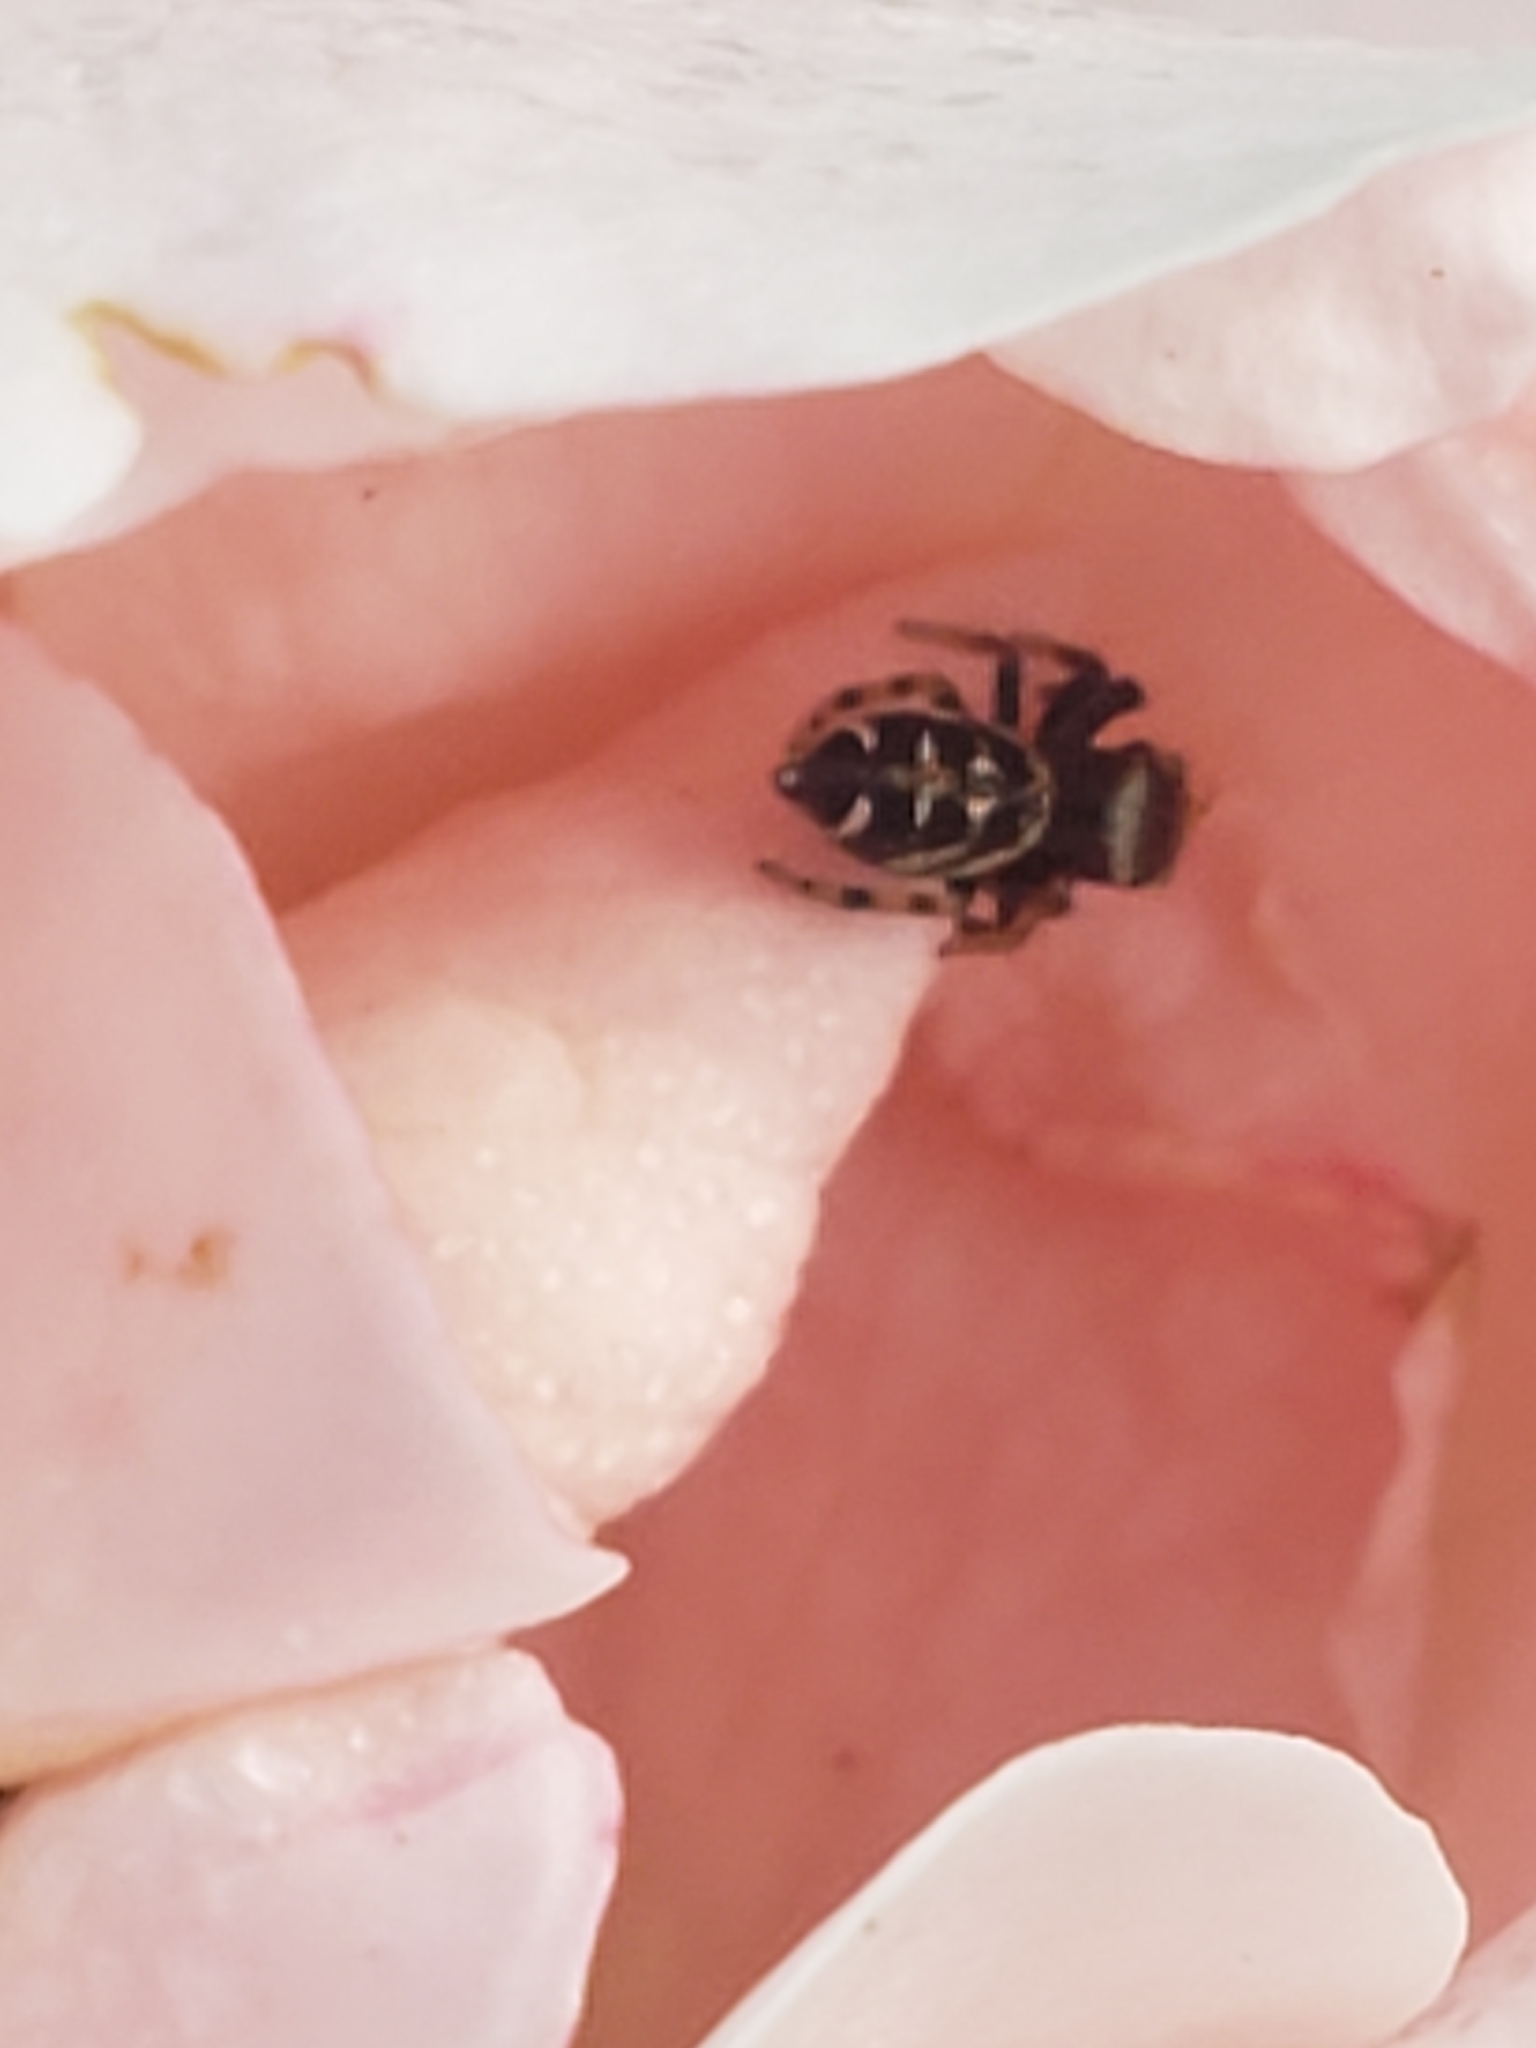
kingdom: Animalia
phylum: Arthropoda
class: Arachnida
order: Araneae
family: Salticidae
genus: Paraphidippus
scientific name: Paraphidippus aurantius
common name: Jumping spiders
